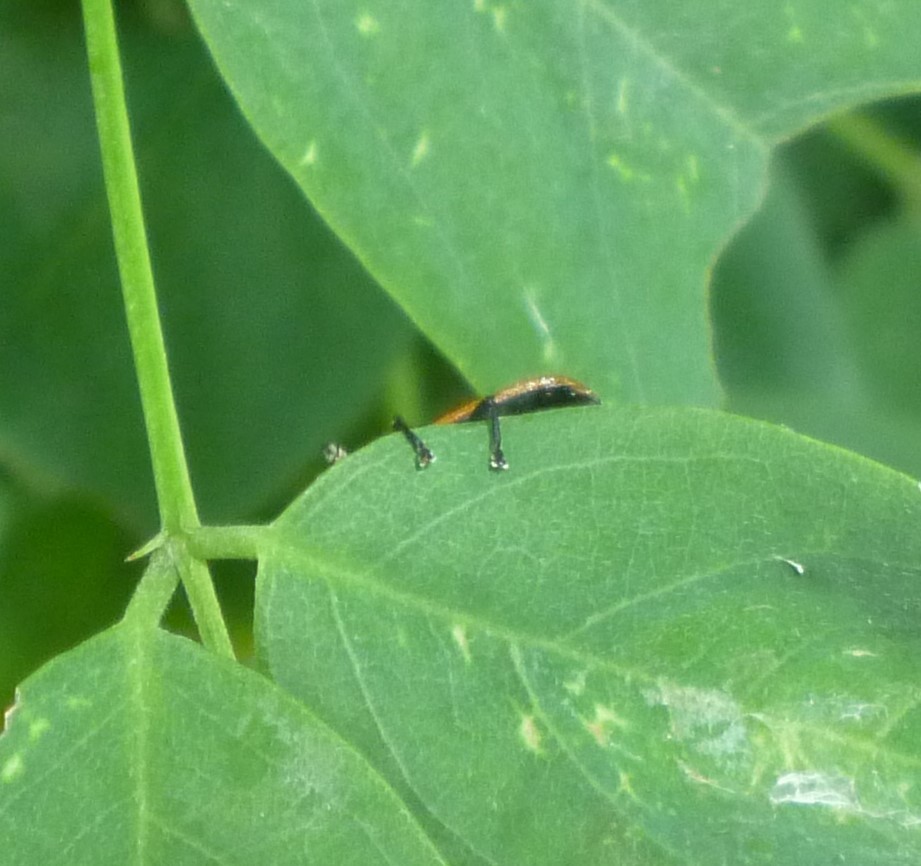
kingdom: Animalia
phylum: Arthropoda
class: Insecta
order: Coleoptera
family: Chrysomelidae
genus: Odontota
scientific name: Odontota dorsalis
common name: Locust leaf-miner beetle
